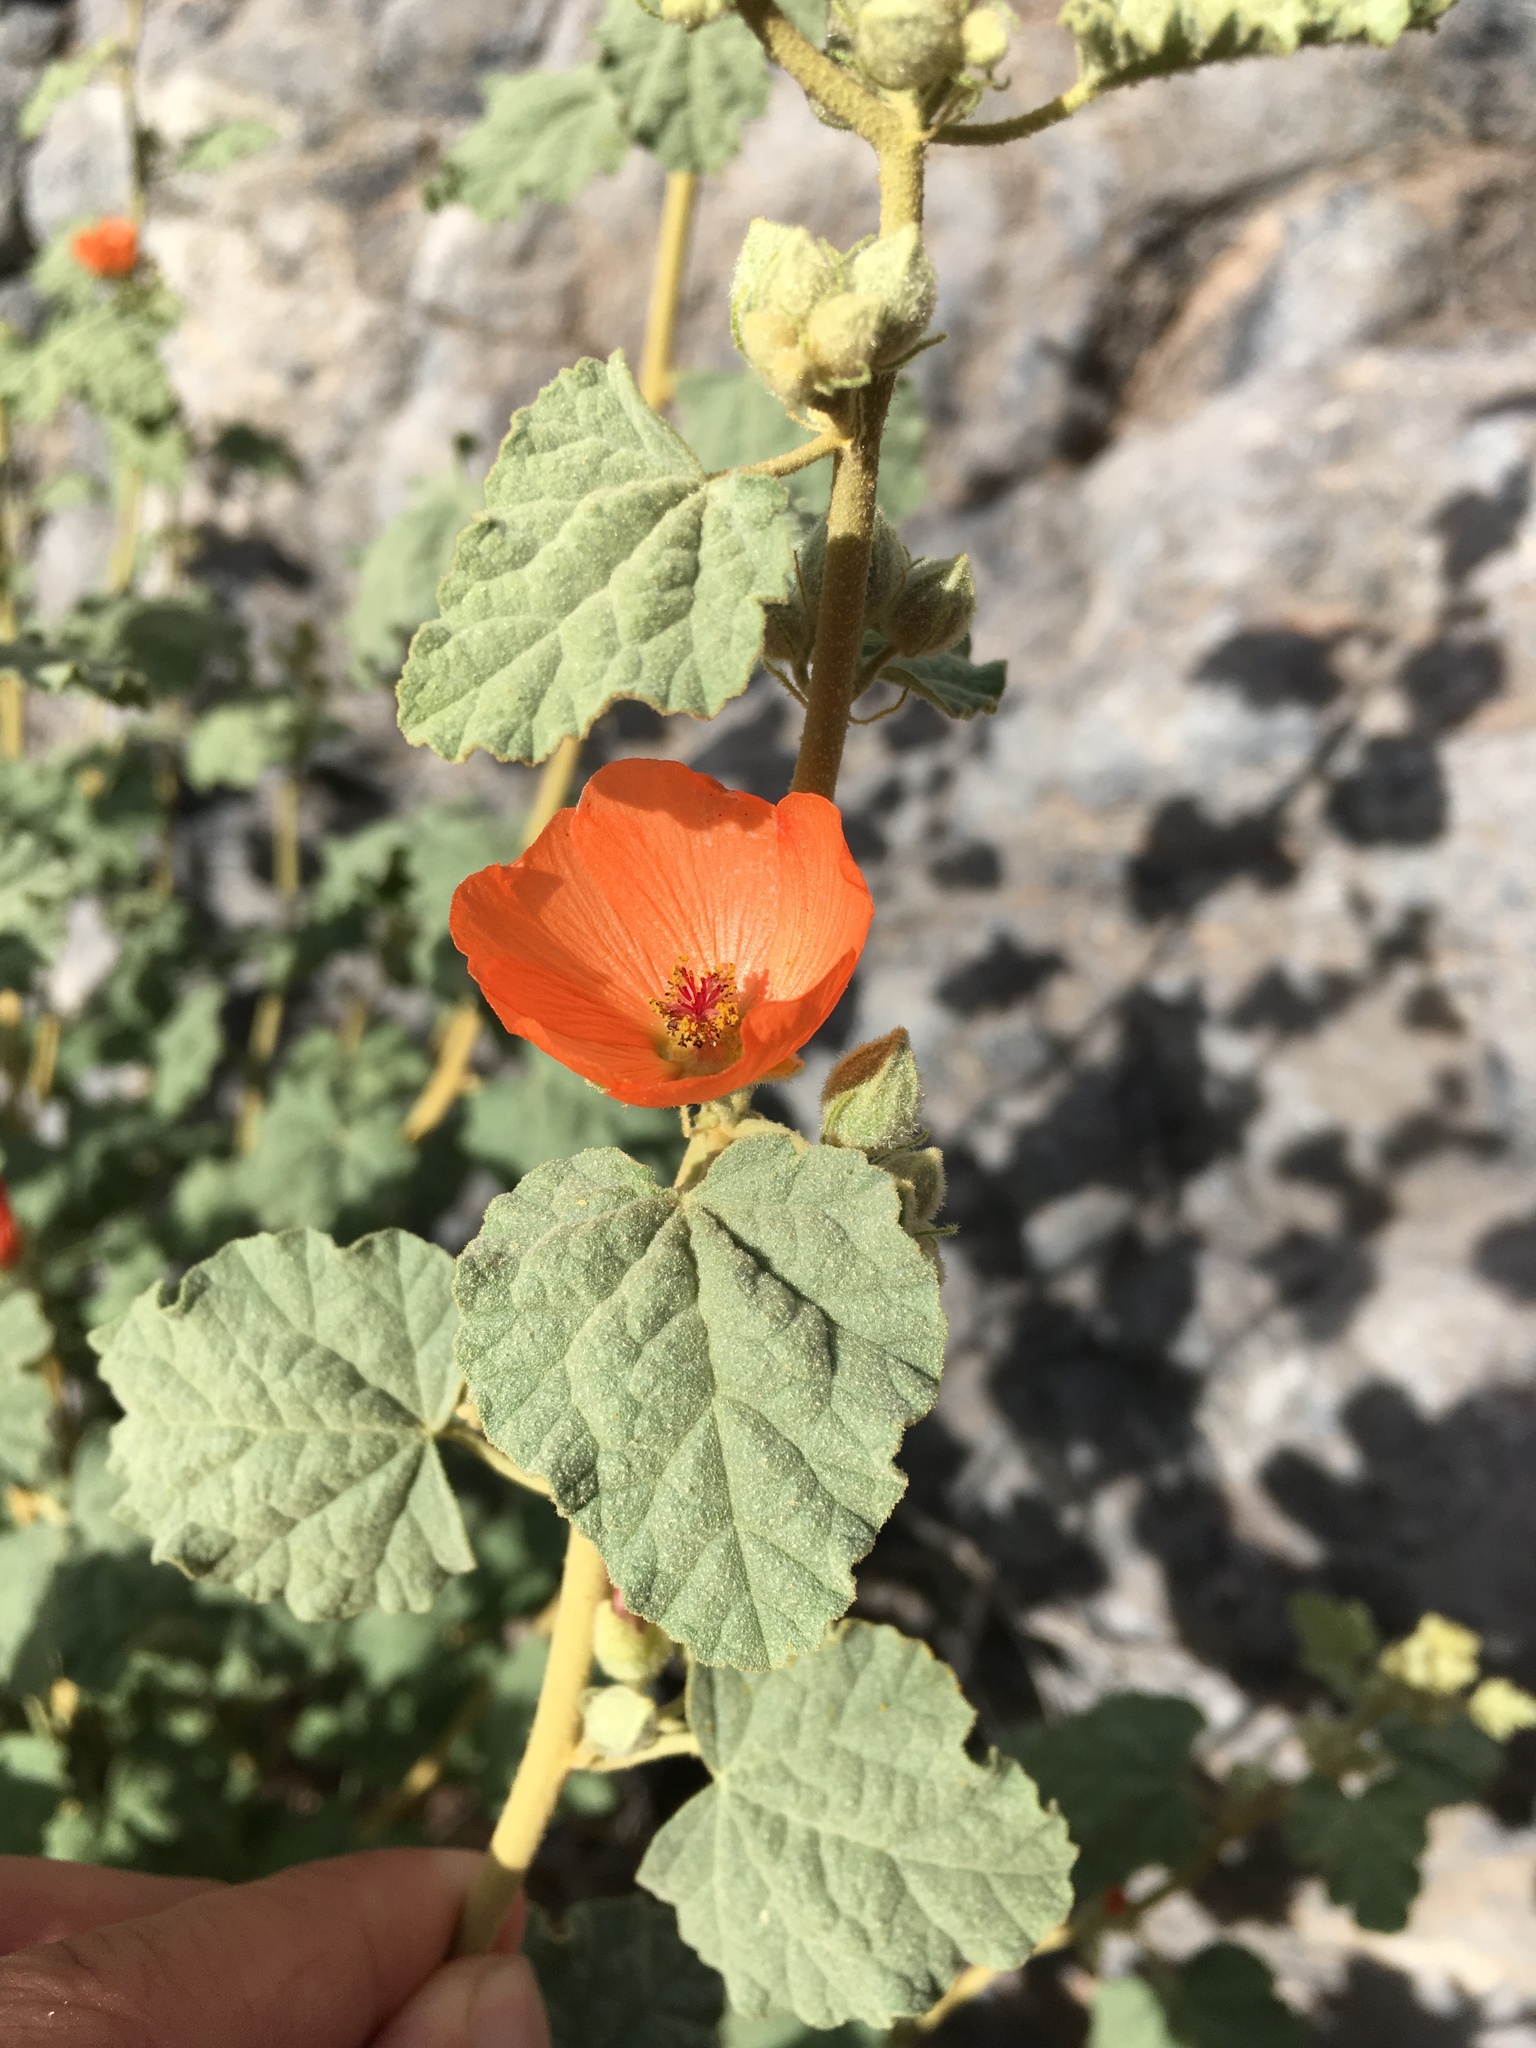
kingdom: Plantae
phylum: Tracheophyta
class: Magnoliopsida
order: Malvales
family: Malvaceae
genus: Sphaeralcea
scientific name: Sphaeralcea ambigua
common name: Apricot globe-mallow
